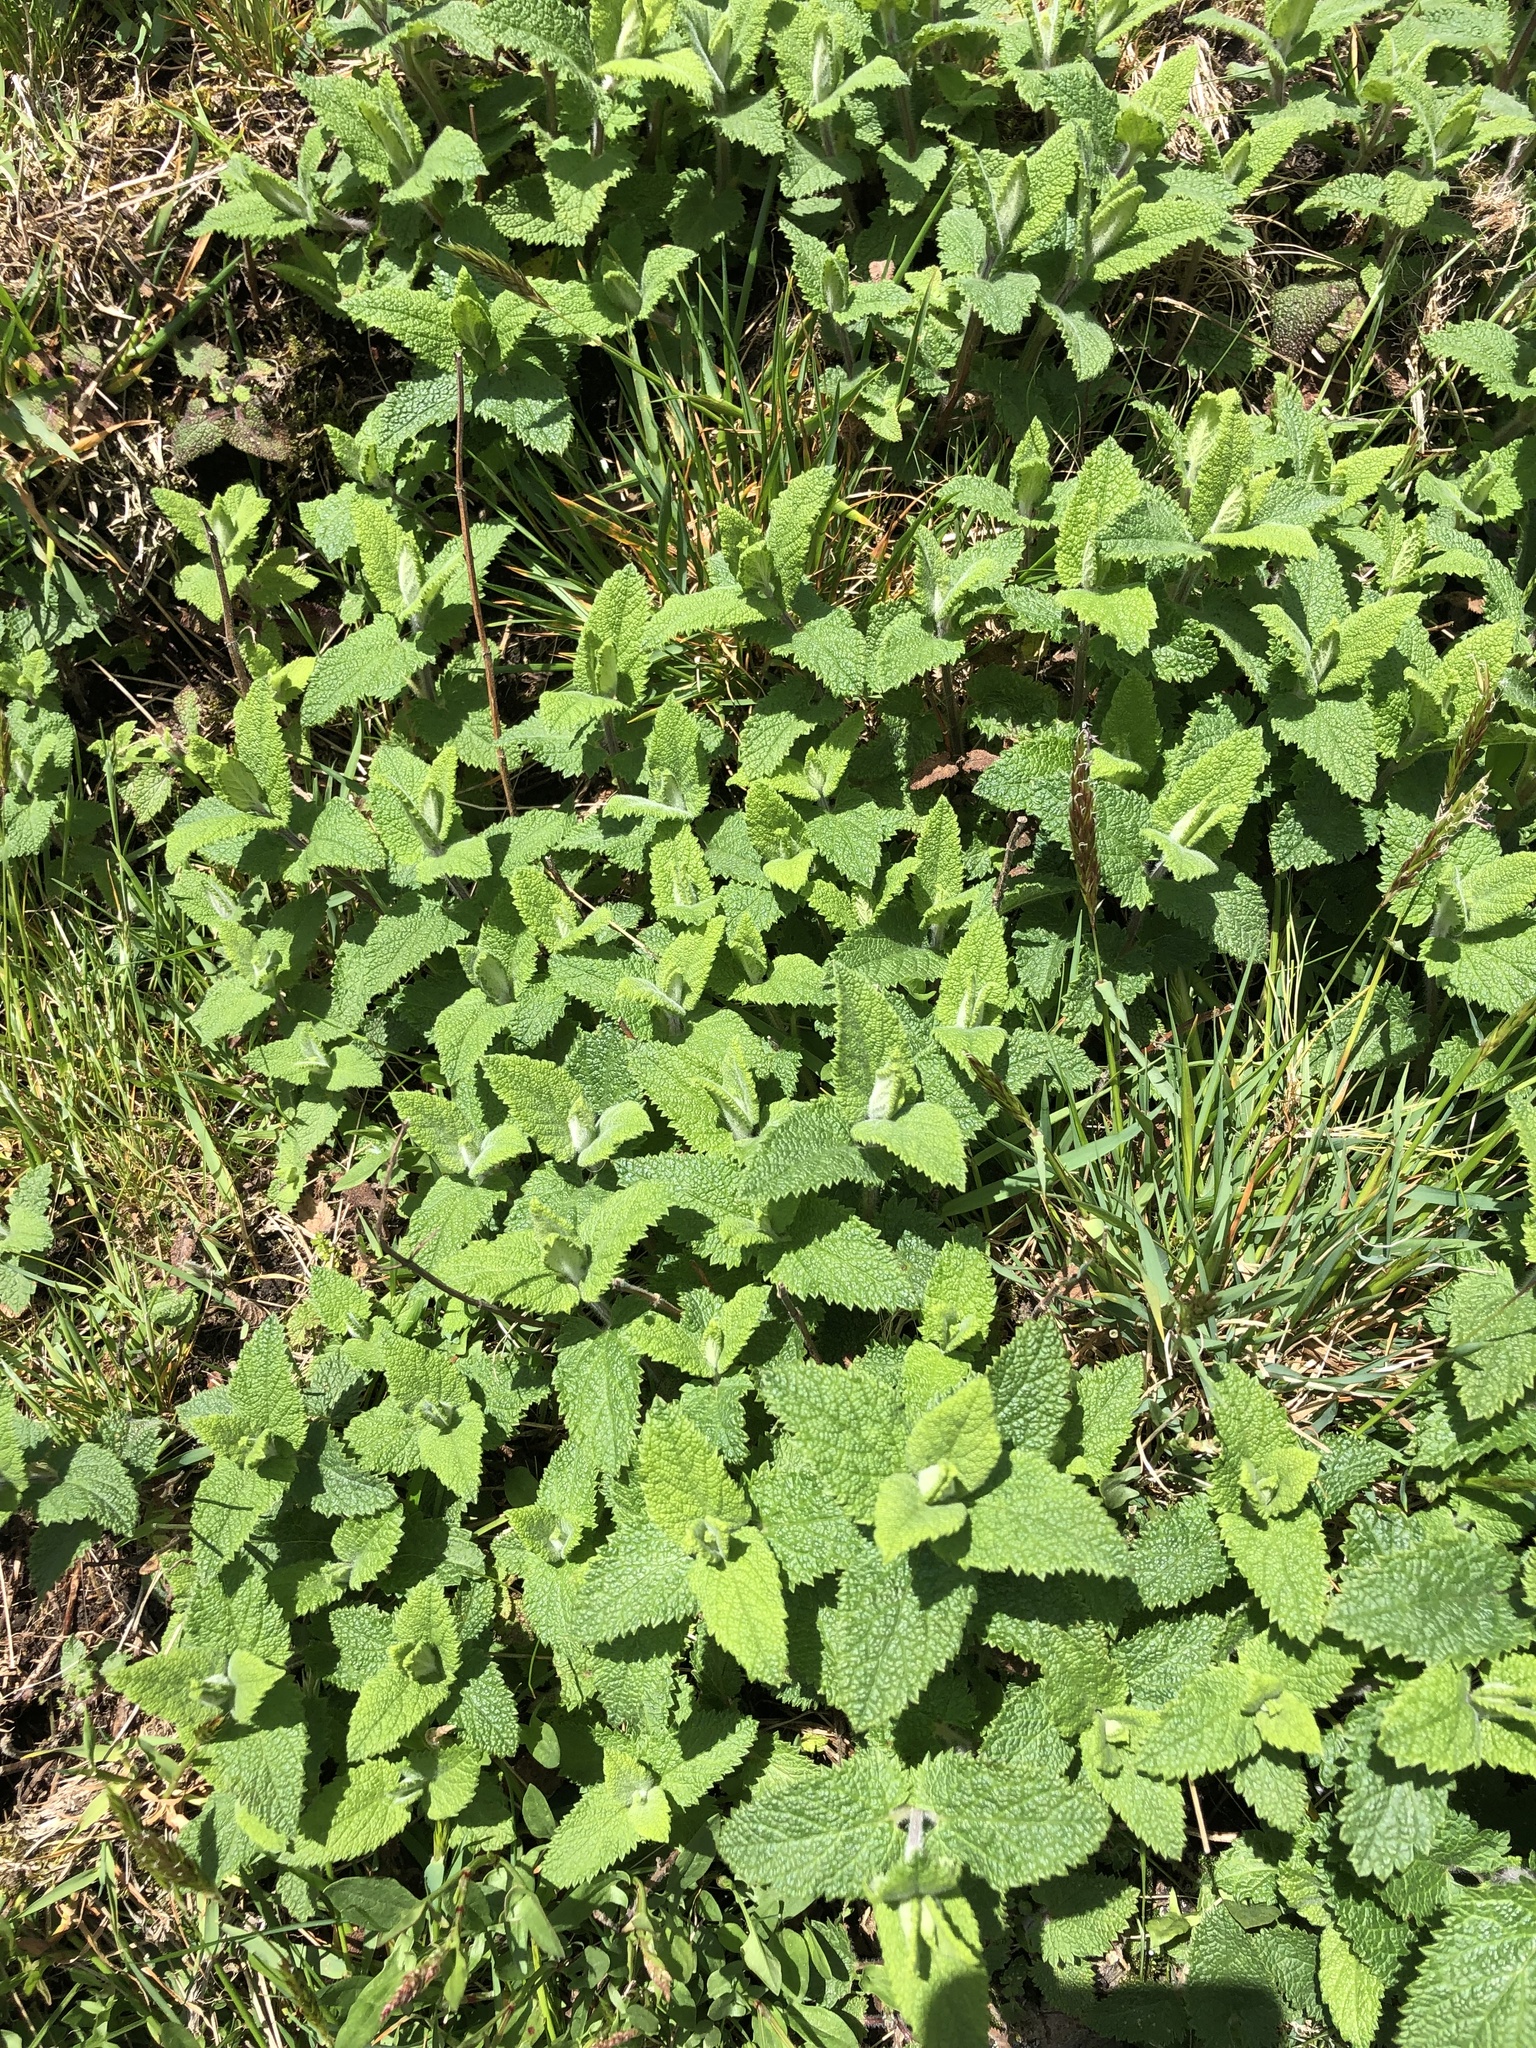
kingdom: Plantae
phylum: Tracheophyta
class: Magnoliopsida
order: Lamiales
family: Lamiaceae
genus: Teucrium
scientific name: Teucrium scorodonia
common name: Woodland germander
